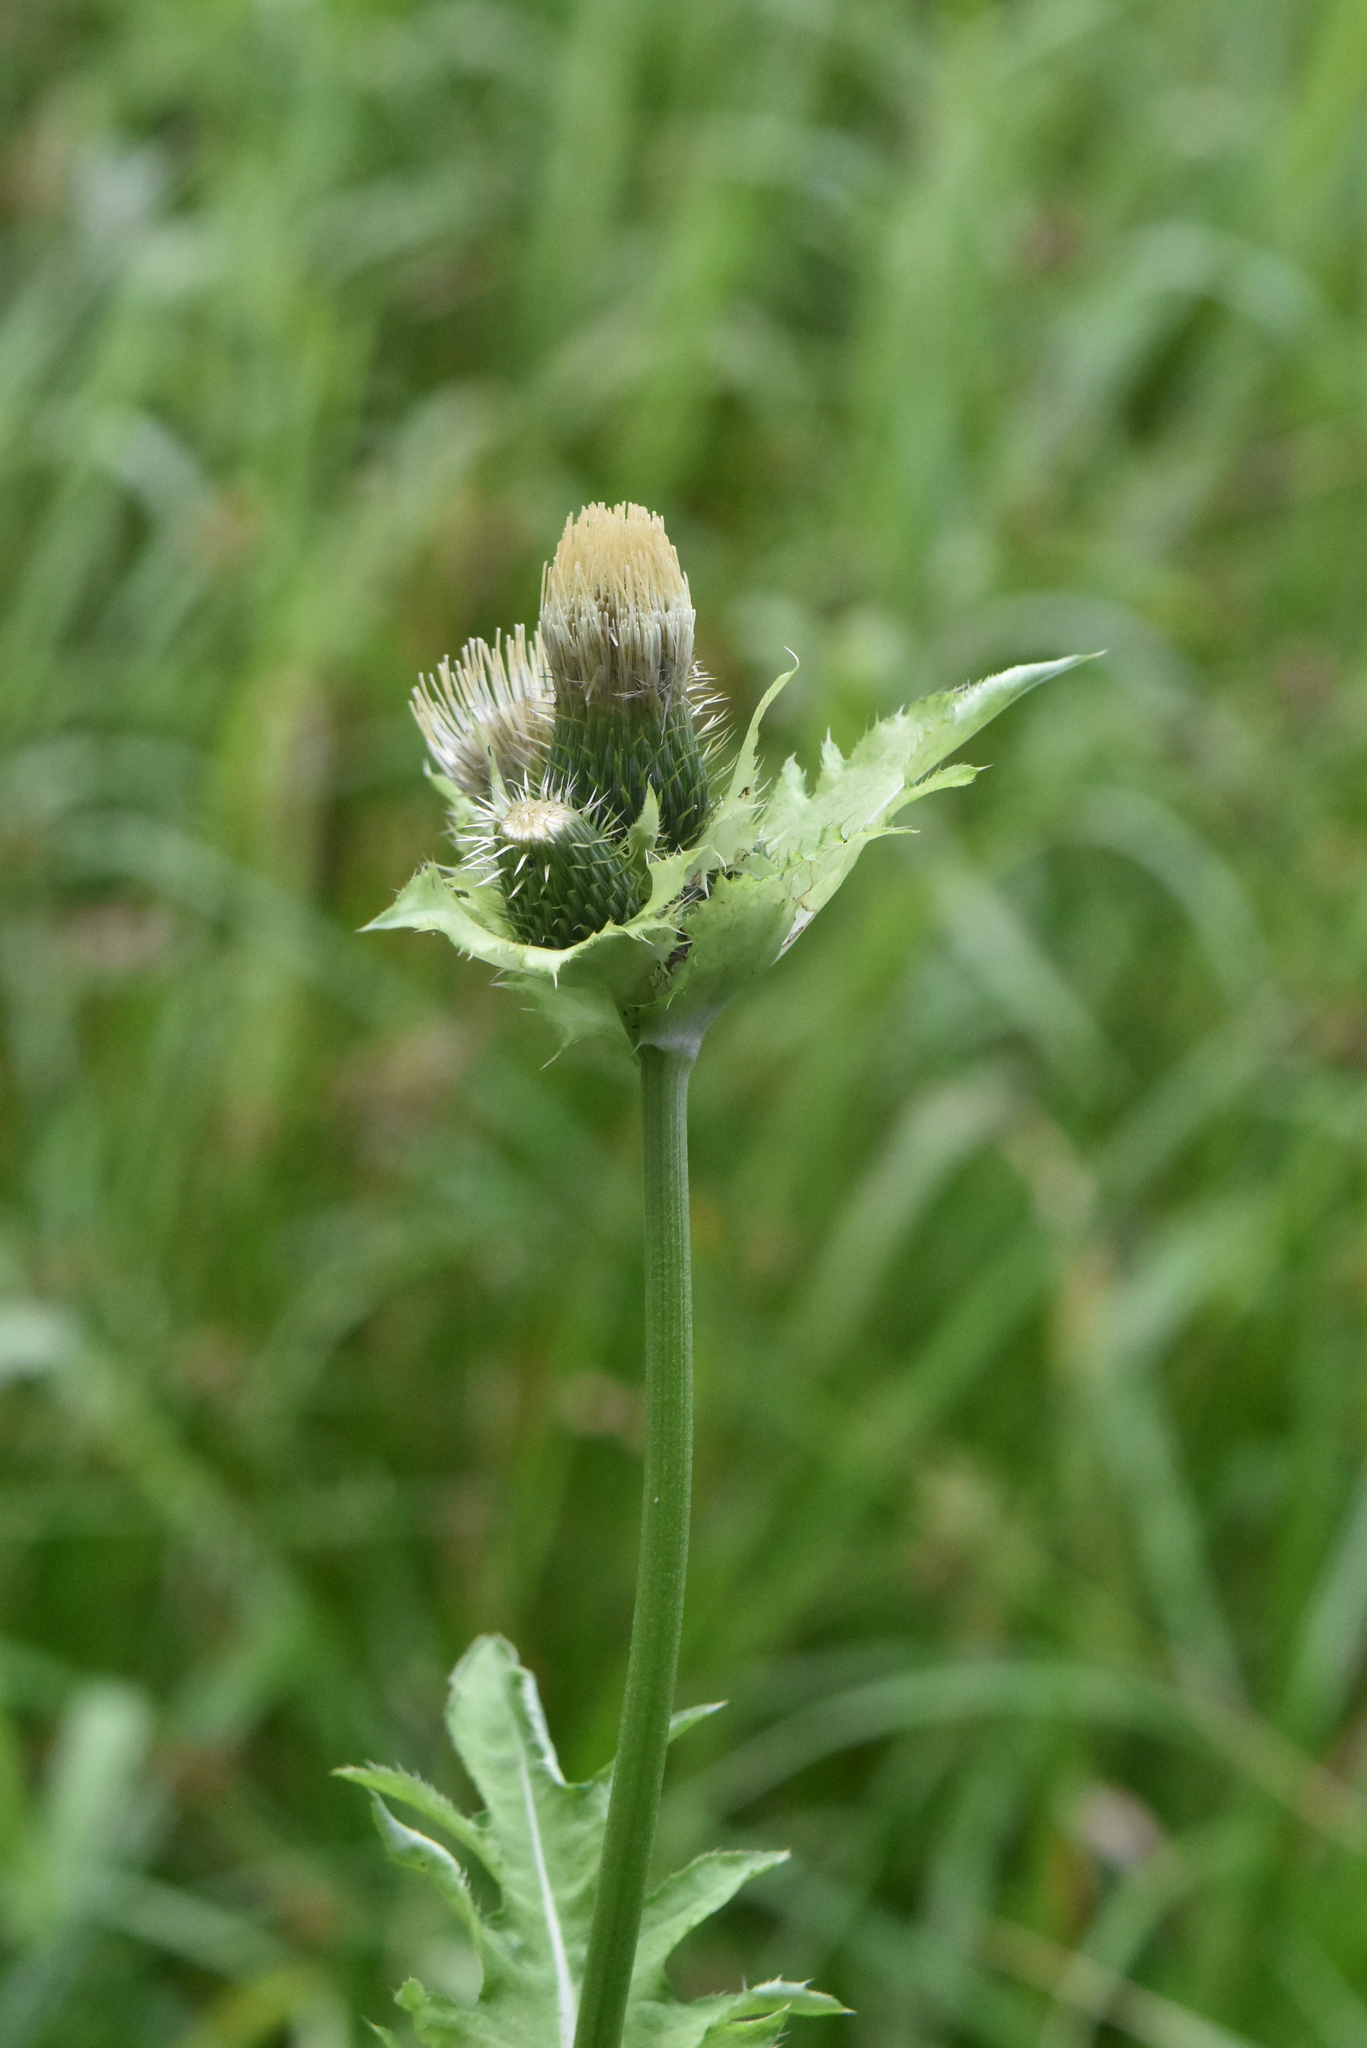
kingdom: Plantae
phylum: Tracheophyta
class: Magnoliopsida
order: Asterales
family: Asteraceae
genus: Cirsium
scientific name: Cirsium oleraceum
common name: Cabbage thistle
